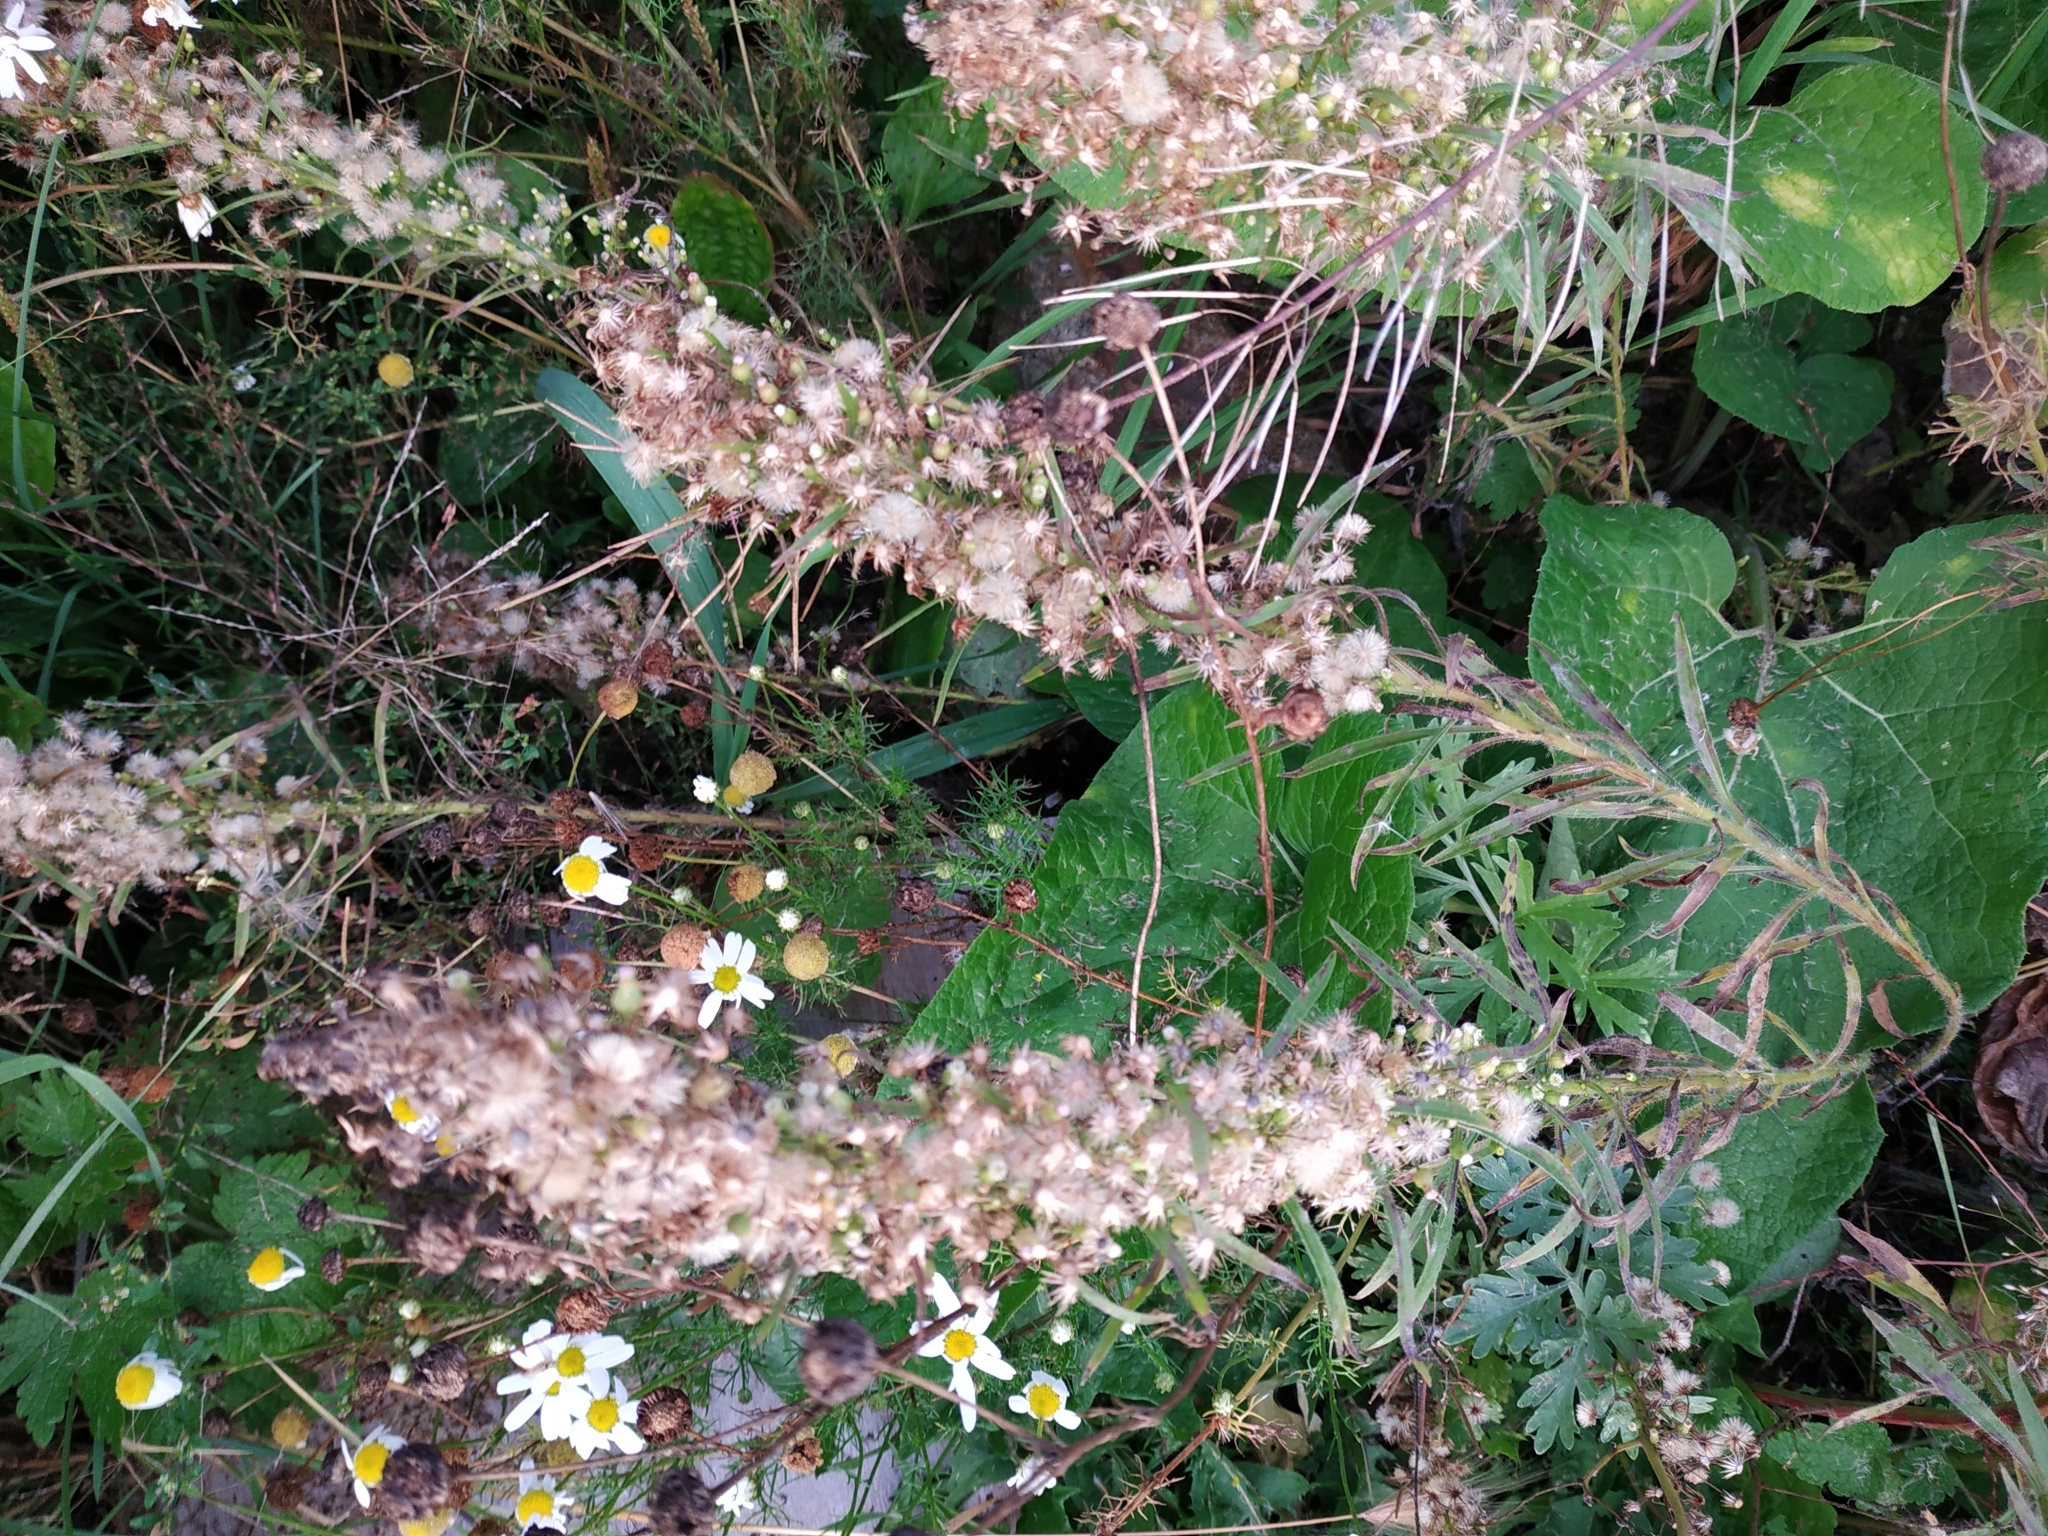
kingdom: Plantae
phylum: Tracheophyta
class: Magnoliopsida
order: Asterales
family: Asteraceae
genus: Erigeron
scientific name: Erigeron canadensis
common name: Canadian fleabane
